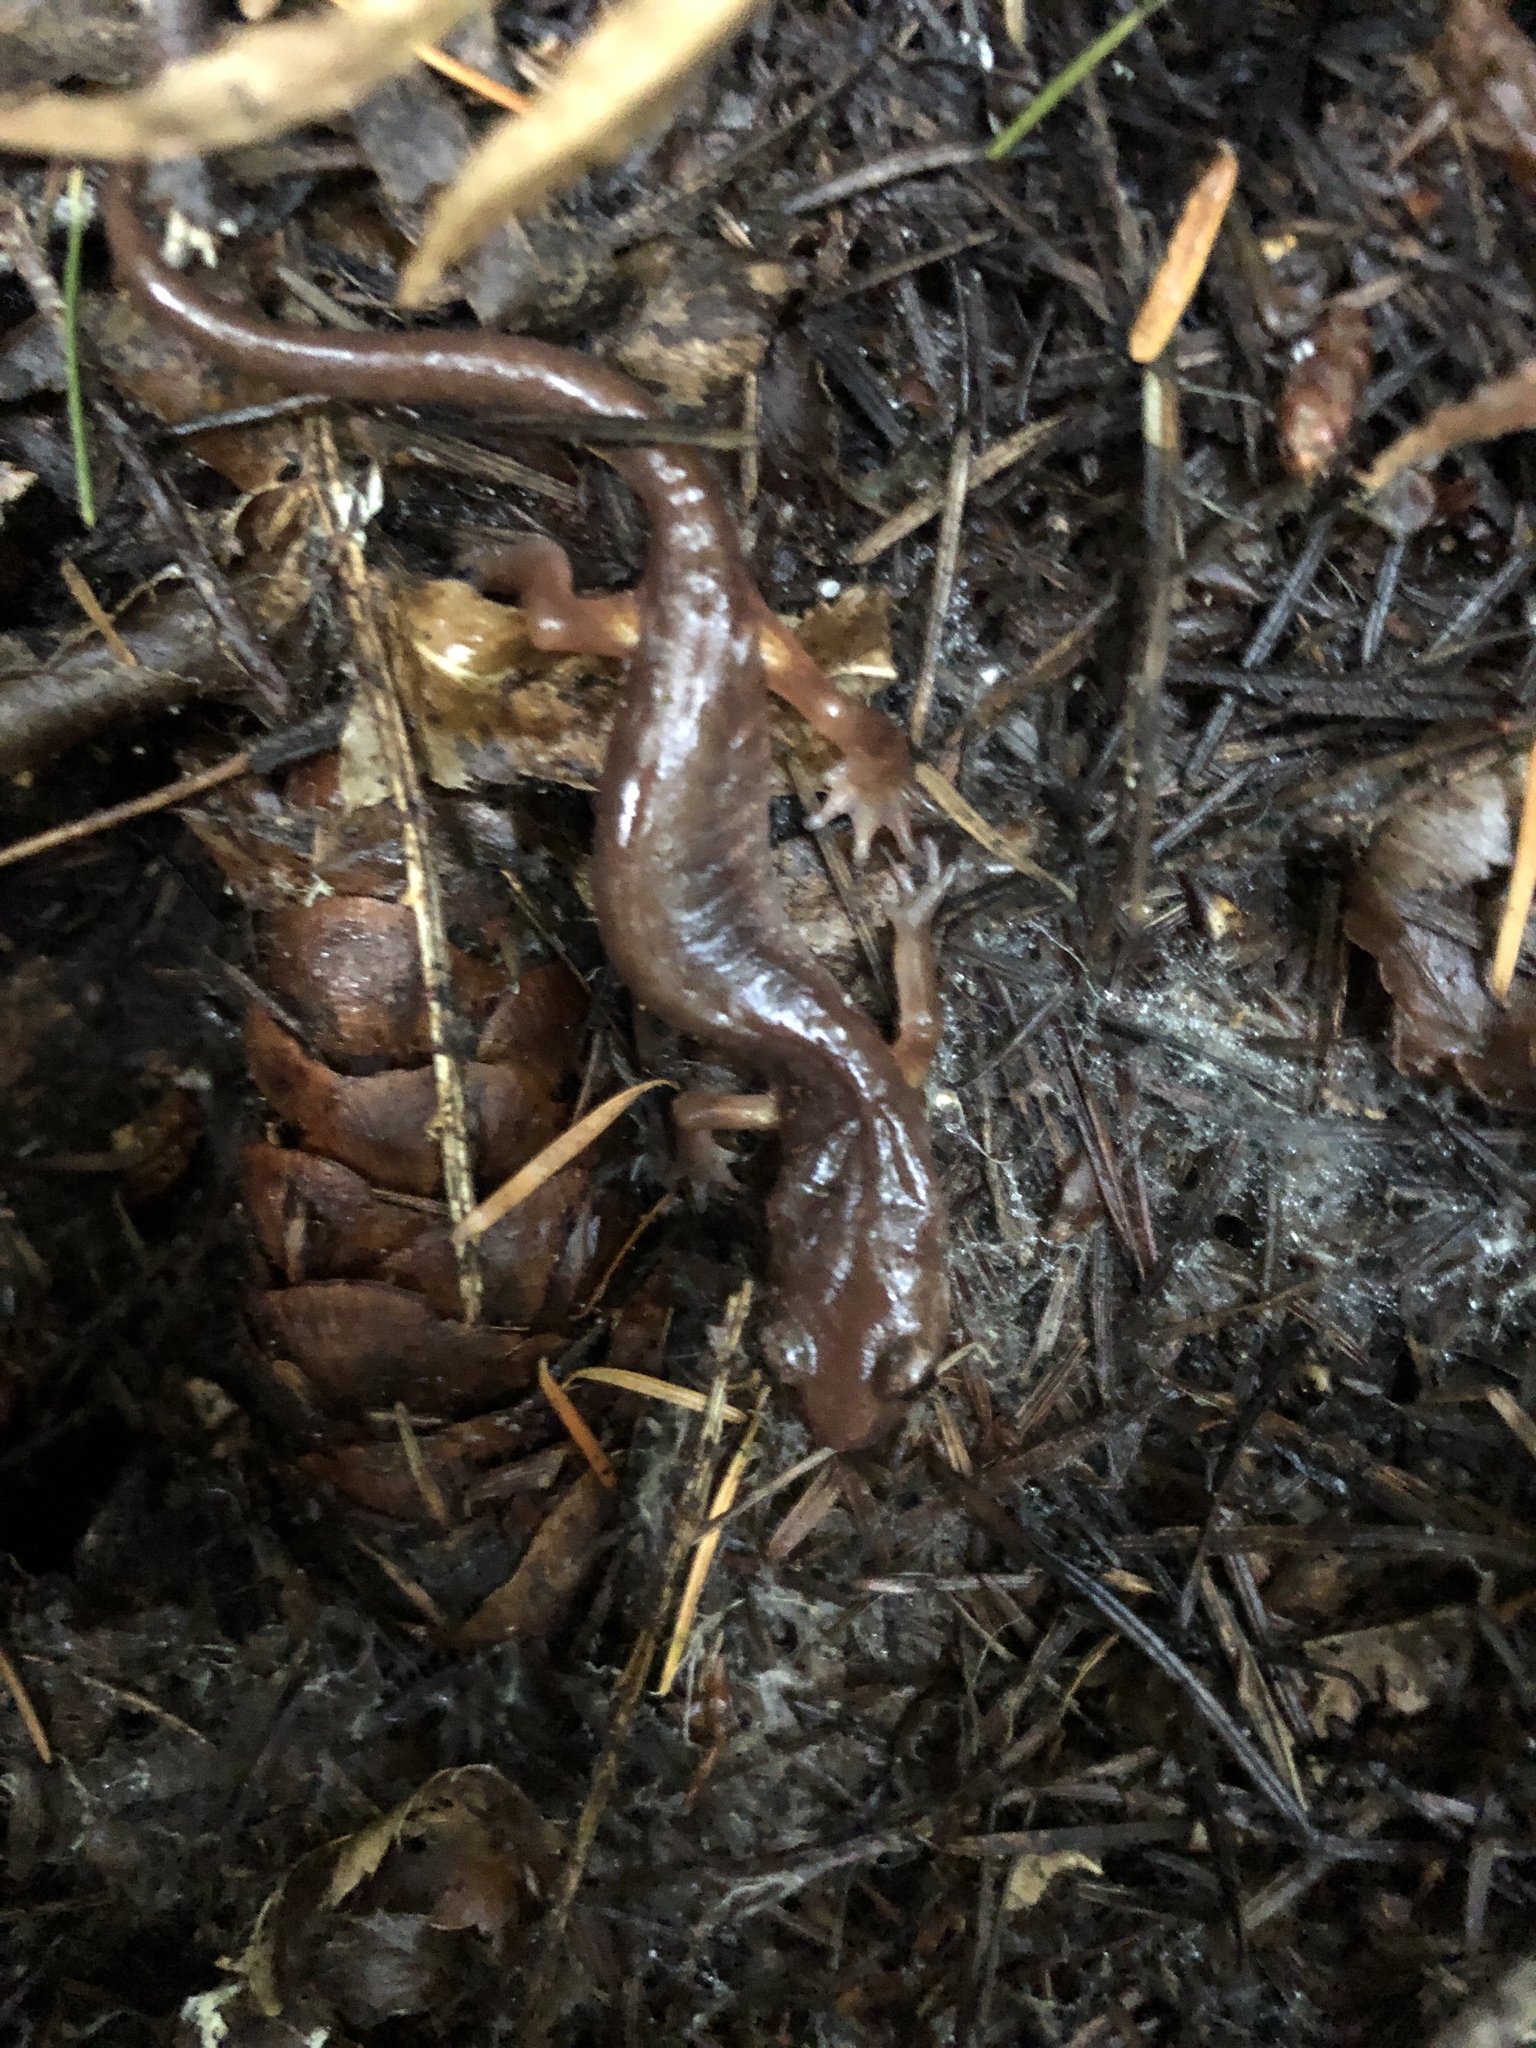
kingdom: Animalia
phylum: Chordata
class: Amphibia
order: Caudata
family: Plethodontidae
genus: Ensatina
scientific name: Ensatina eschscholtzii
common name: Ensatina
